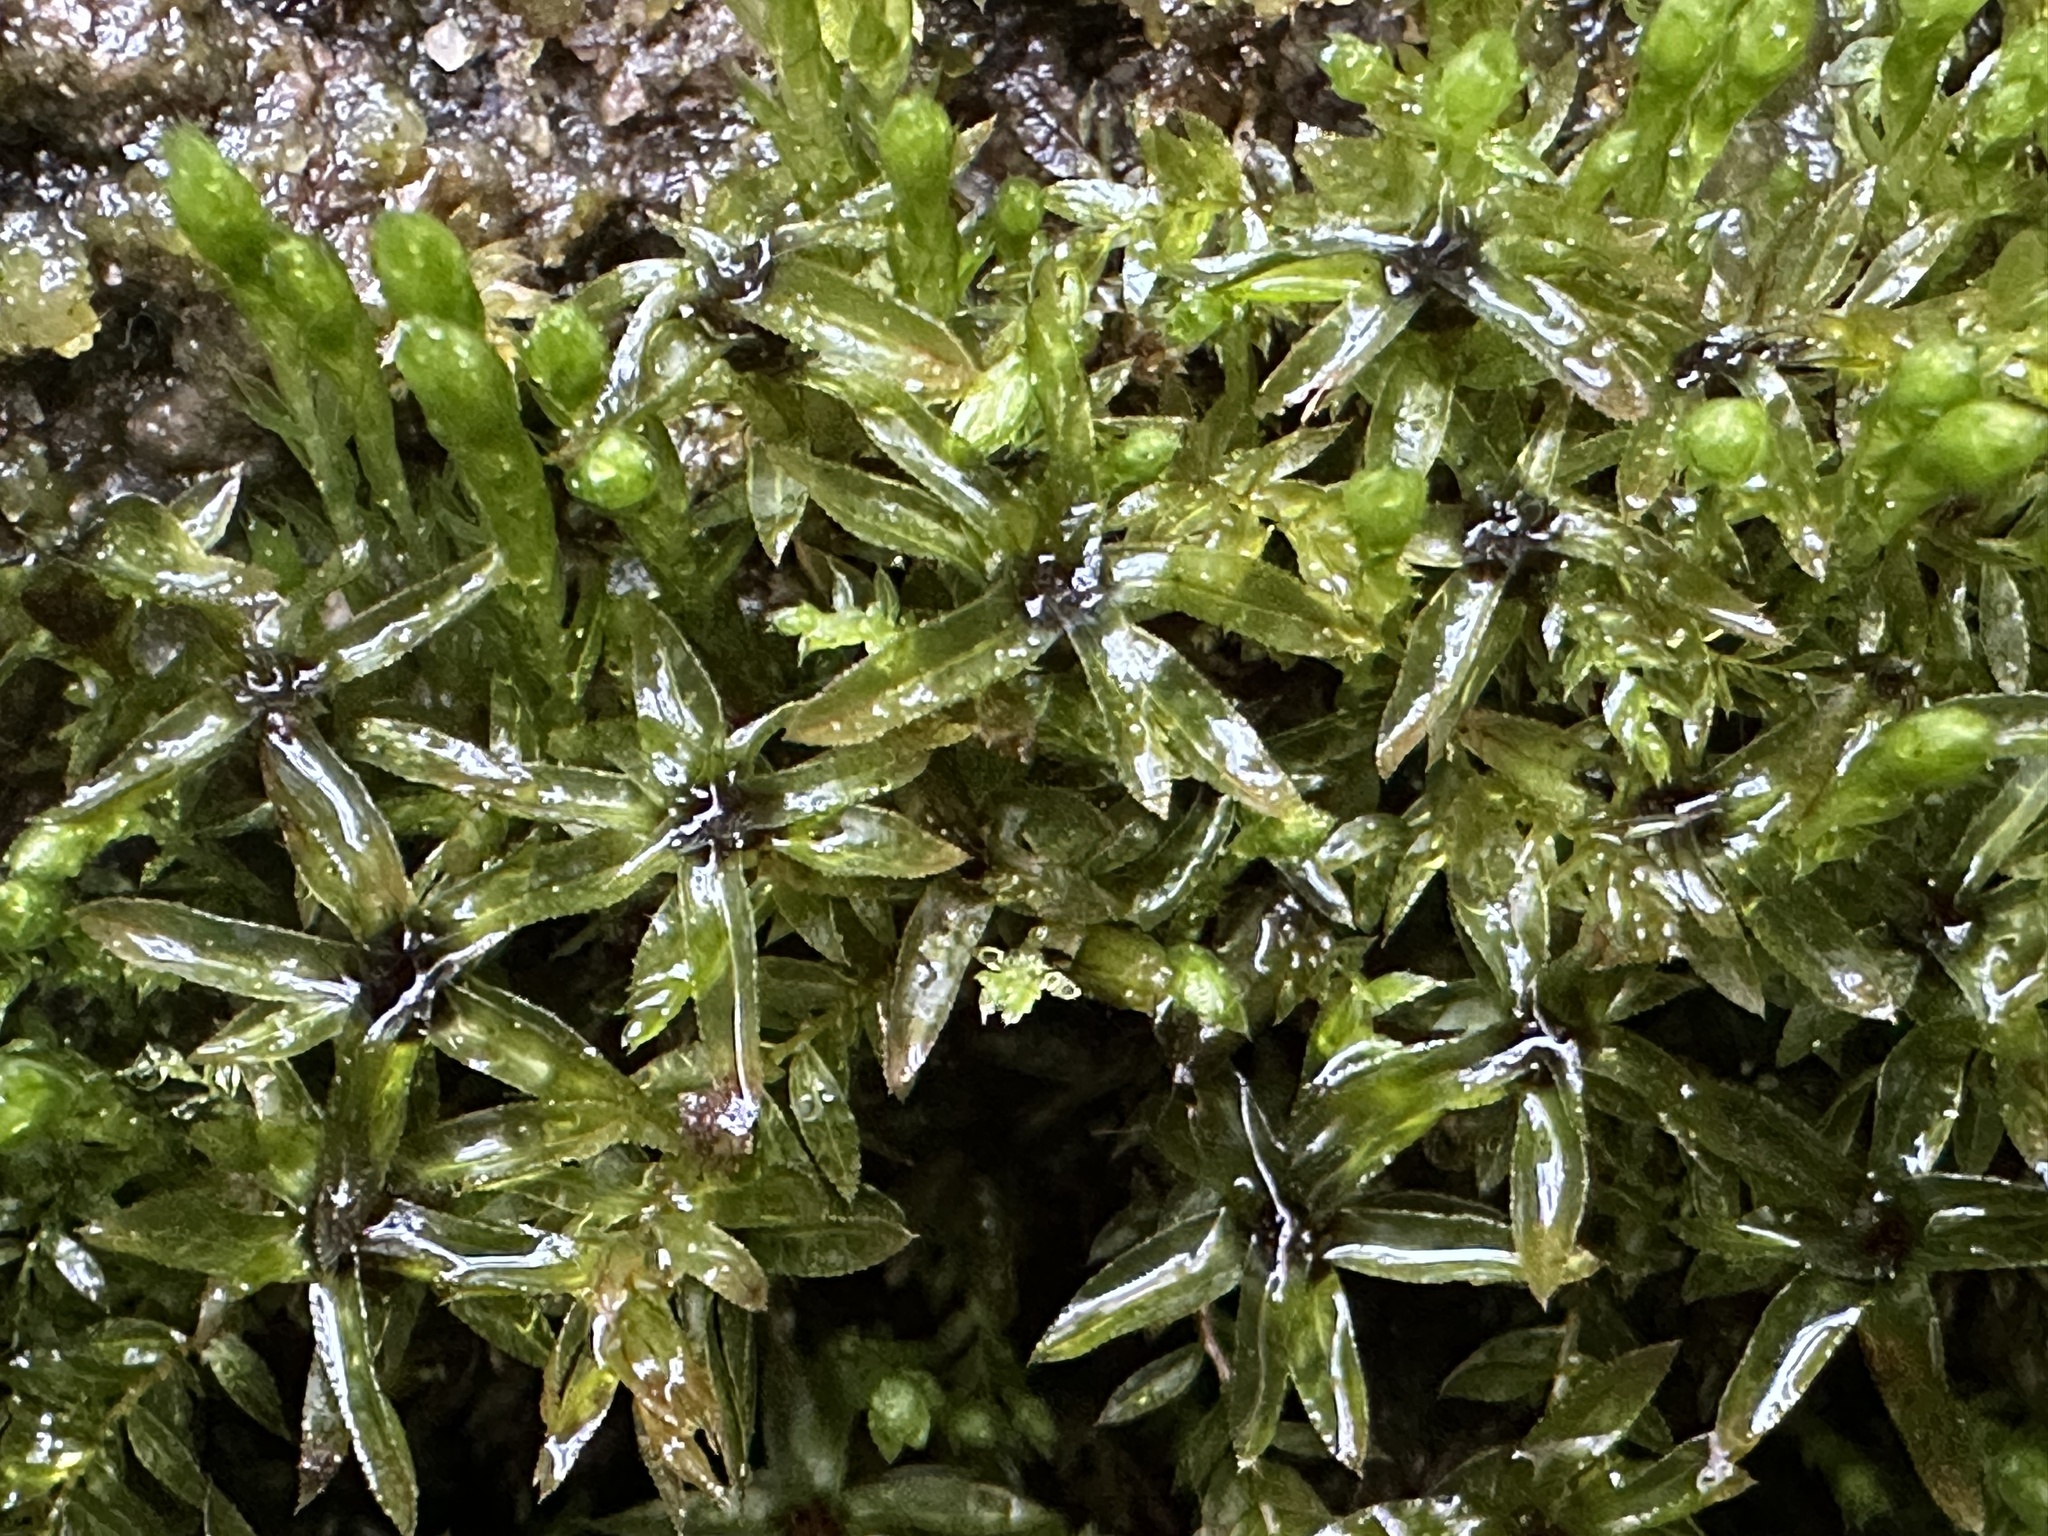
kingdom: Plantae
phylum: Bryophyta
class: Bryopsida
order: Bryales
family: Mniaceae
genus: Mnium
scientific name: Mnium hornum
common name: Swan's-neck leafy moss
